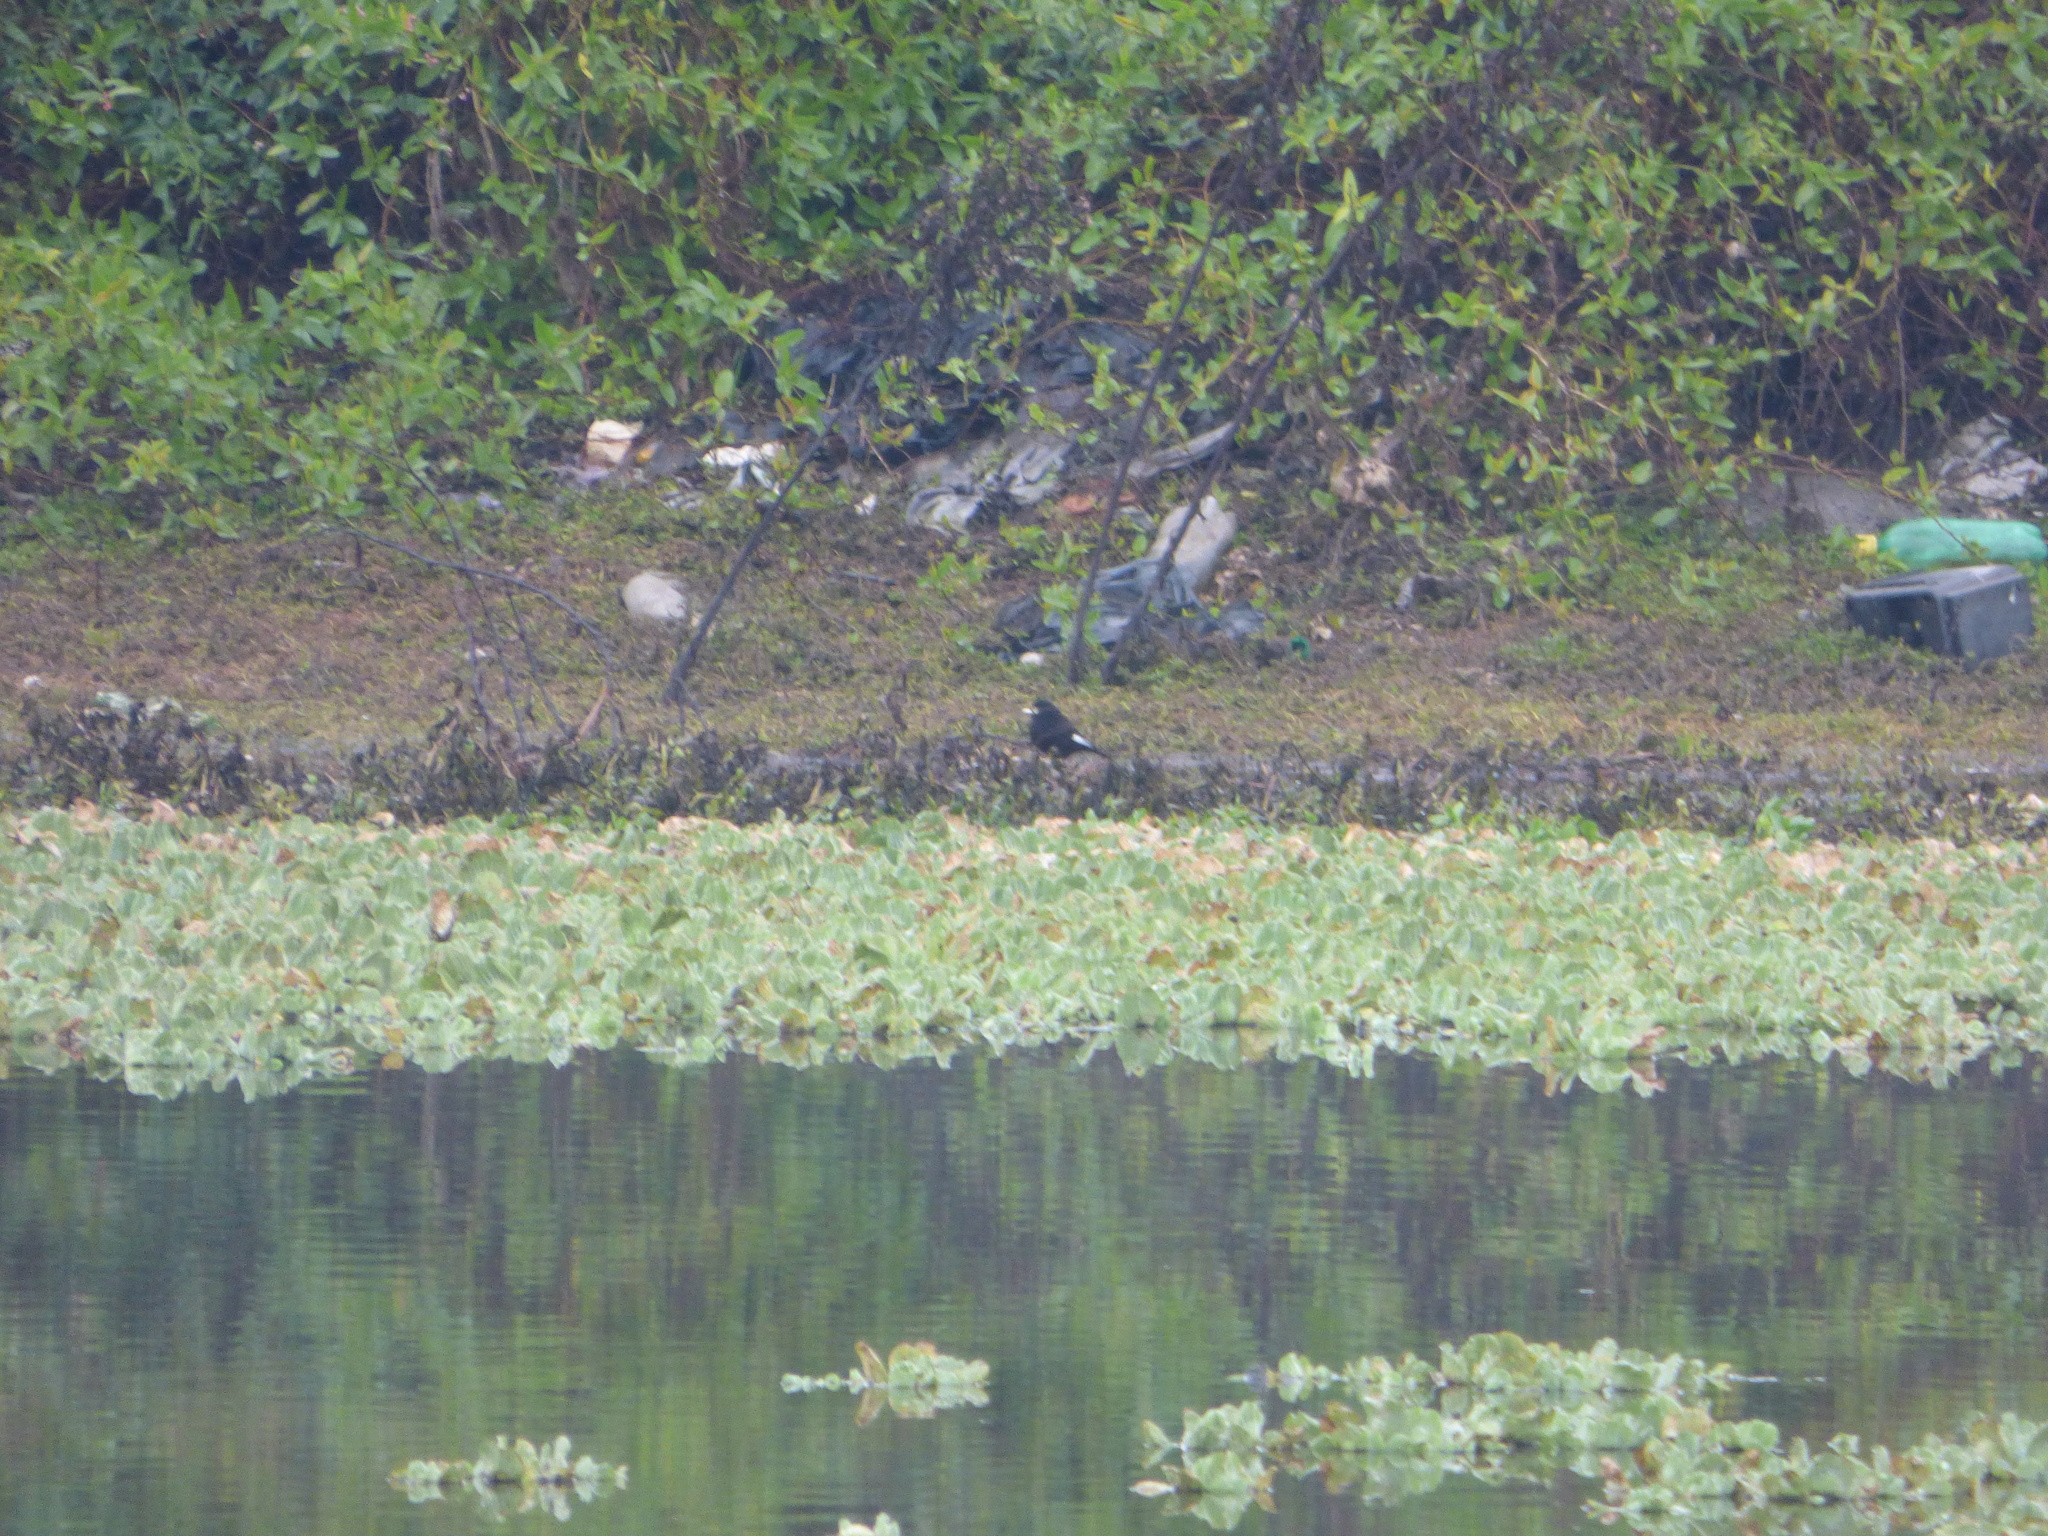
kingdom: Animalia
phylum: Chordata
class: Aves
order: Passeriformes
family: Tyrannidae
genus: Hymenops
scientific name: Hymenops perspicillatus
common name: Spectacled tyrant
